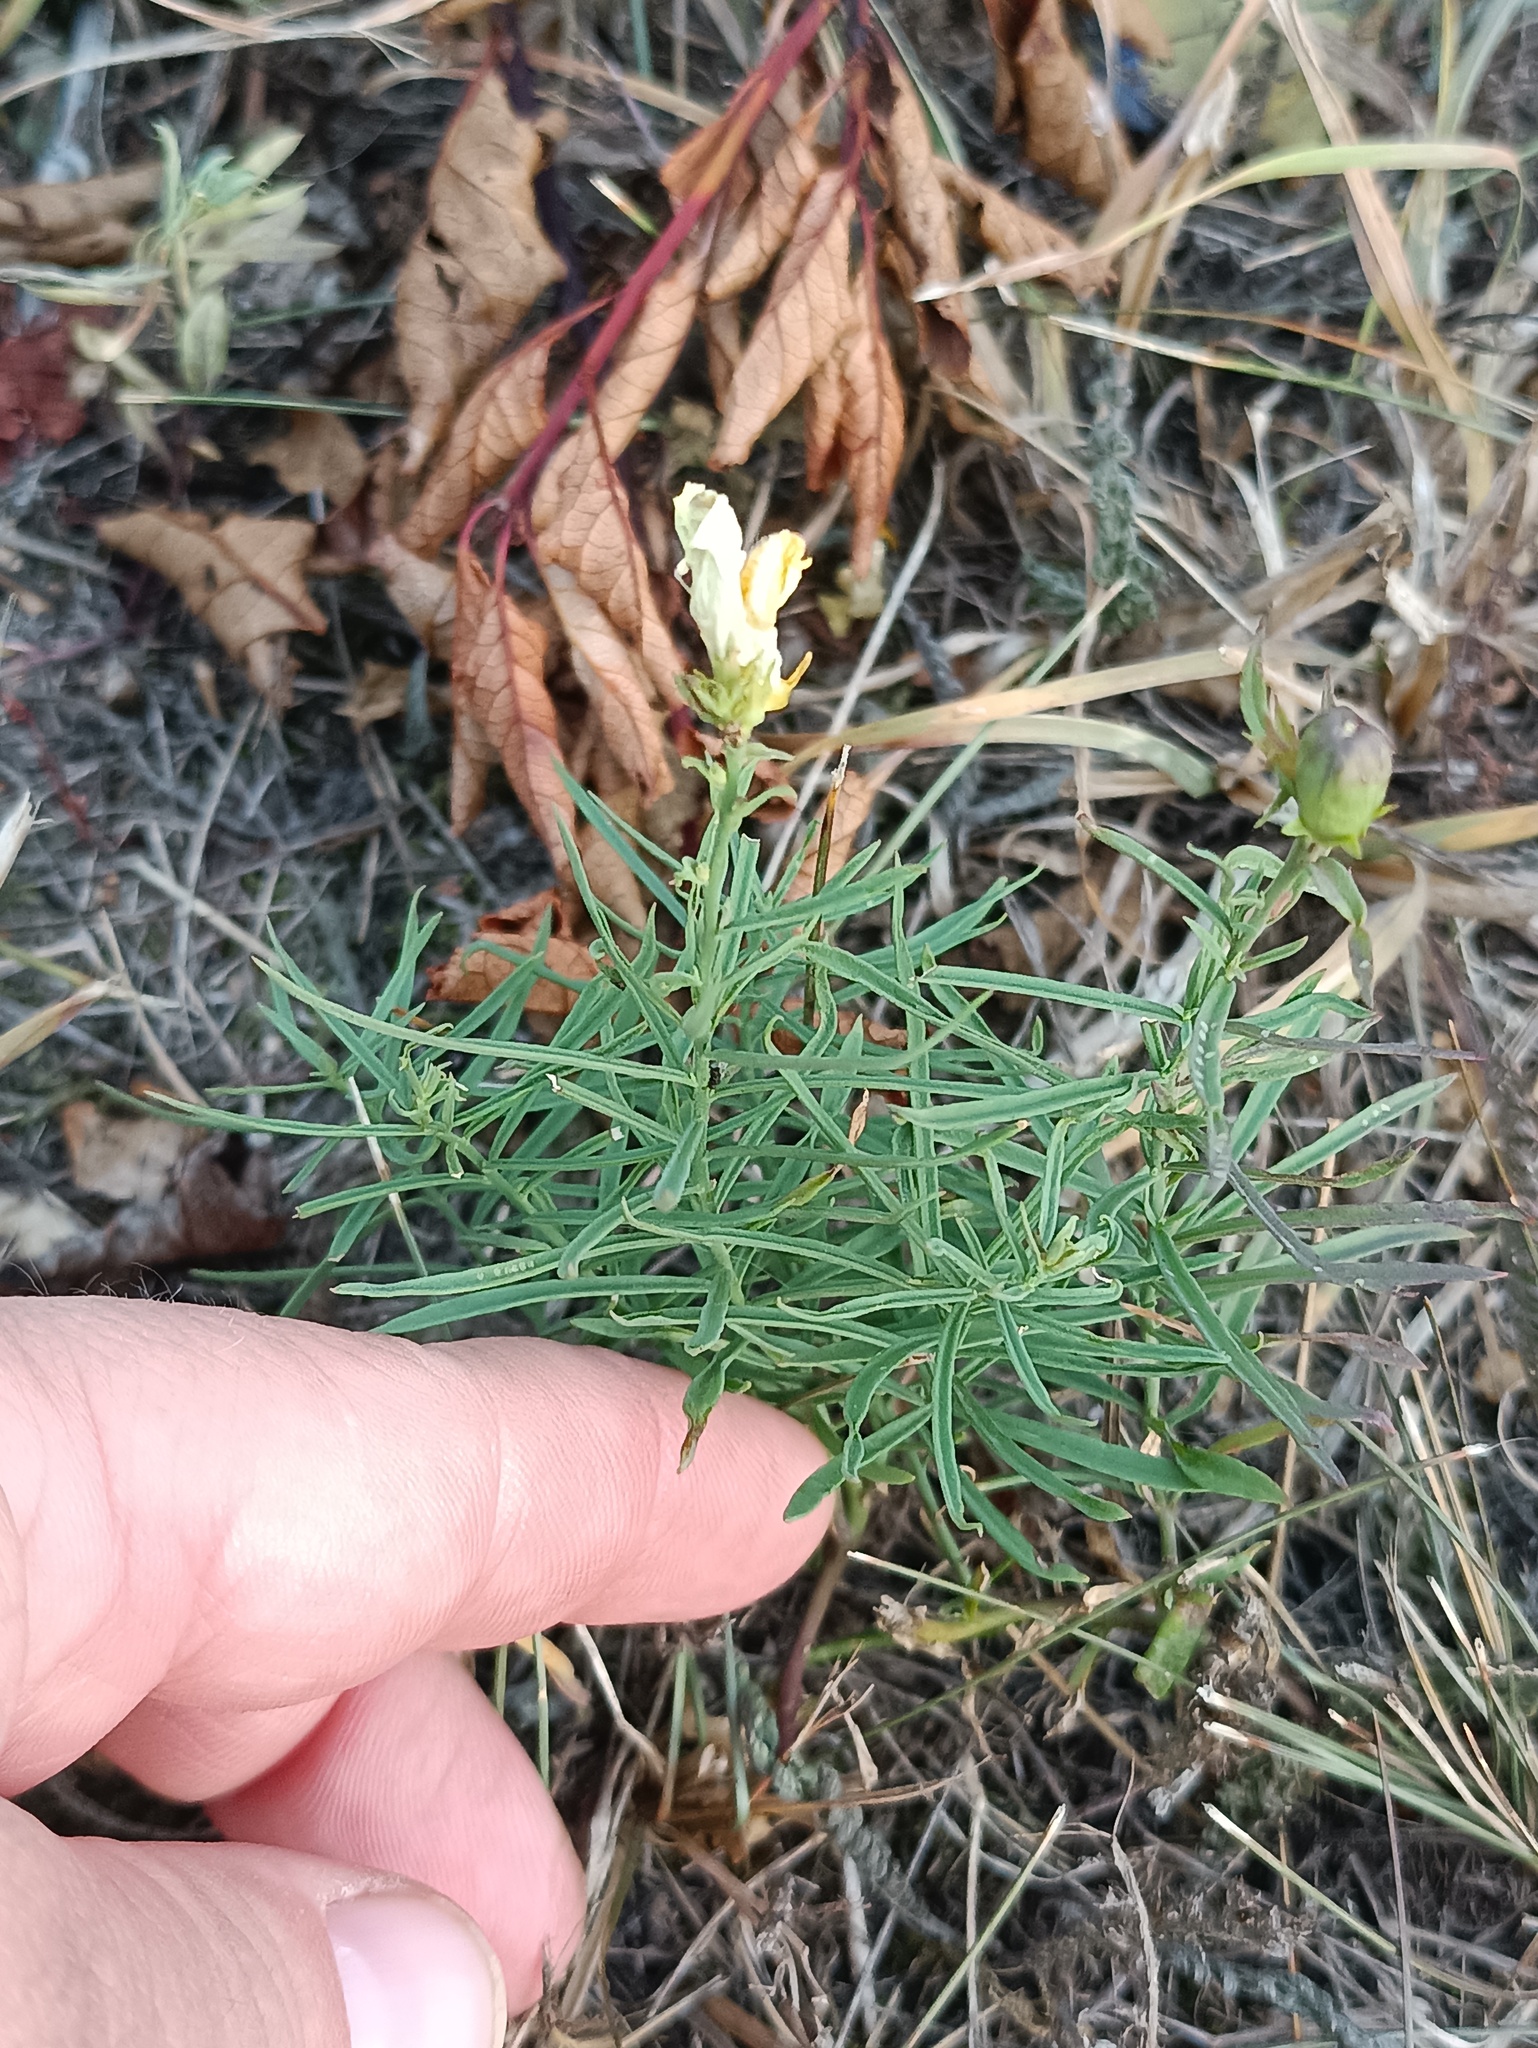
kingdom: Plantae
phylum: Tracheophyta
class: Magnoliopsida
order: Lamiales
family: Plantaginaceae
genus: Linaria
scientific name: Linaria vulgaris
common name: Butter and eggs
